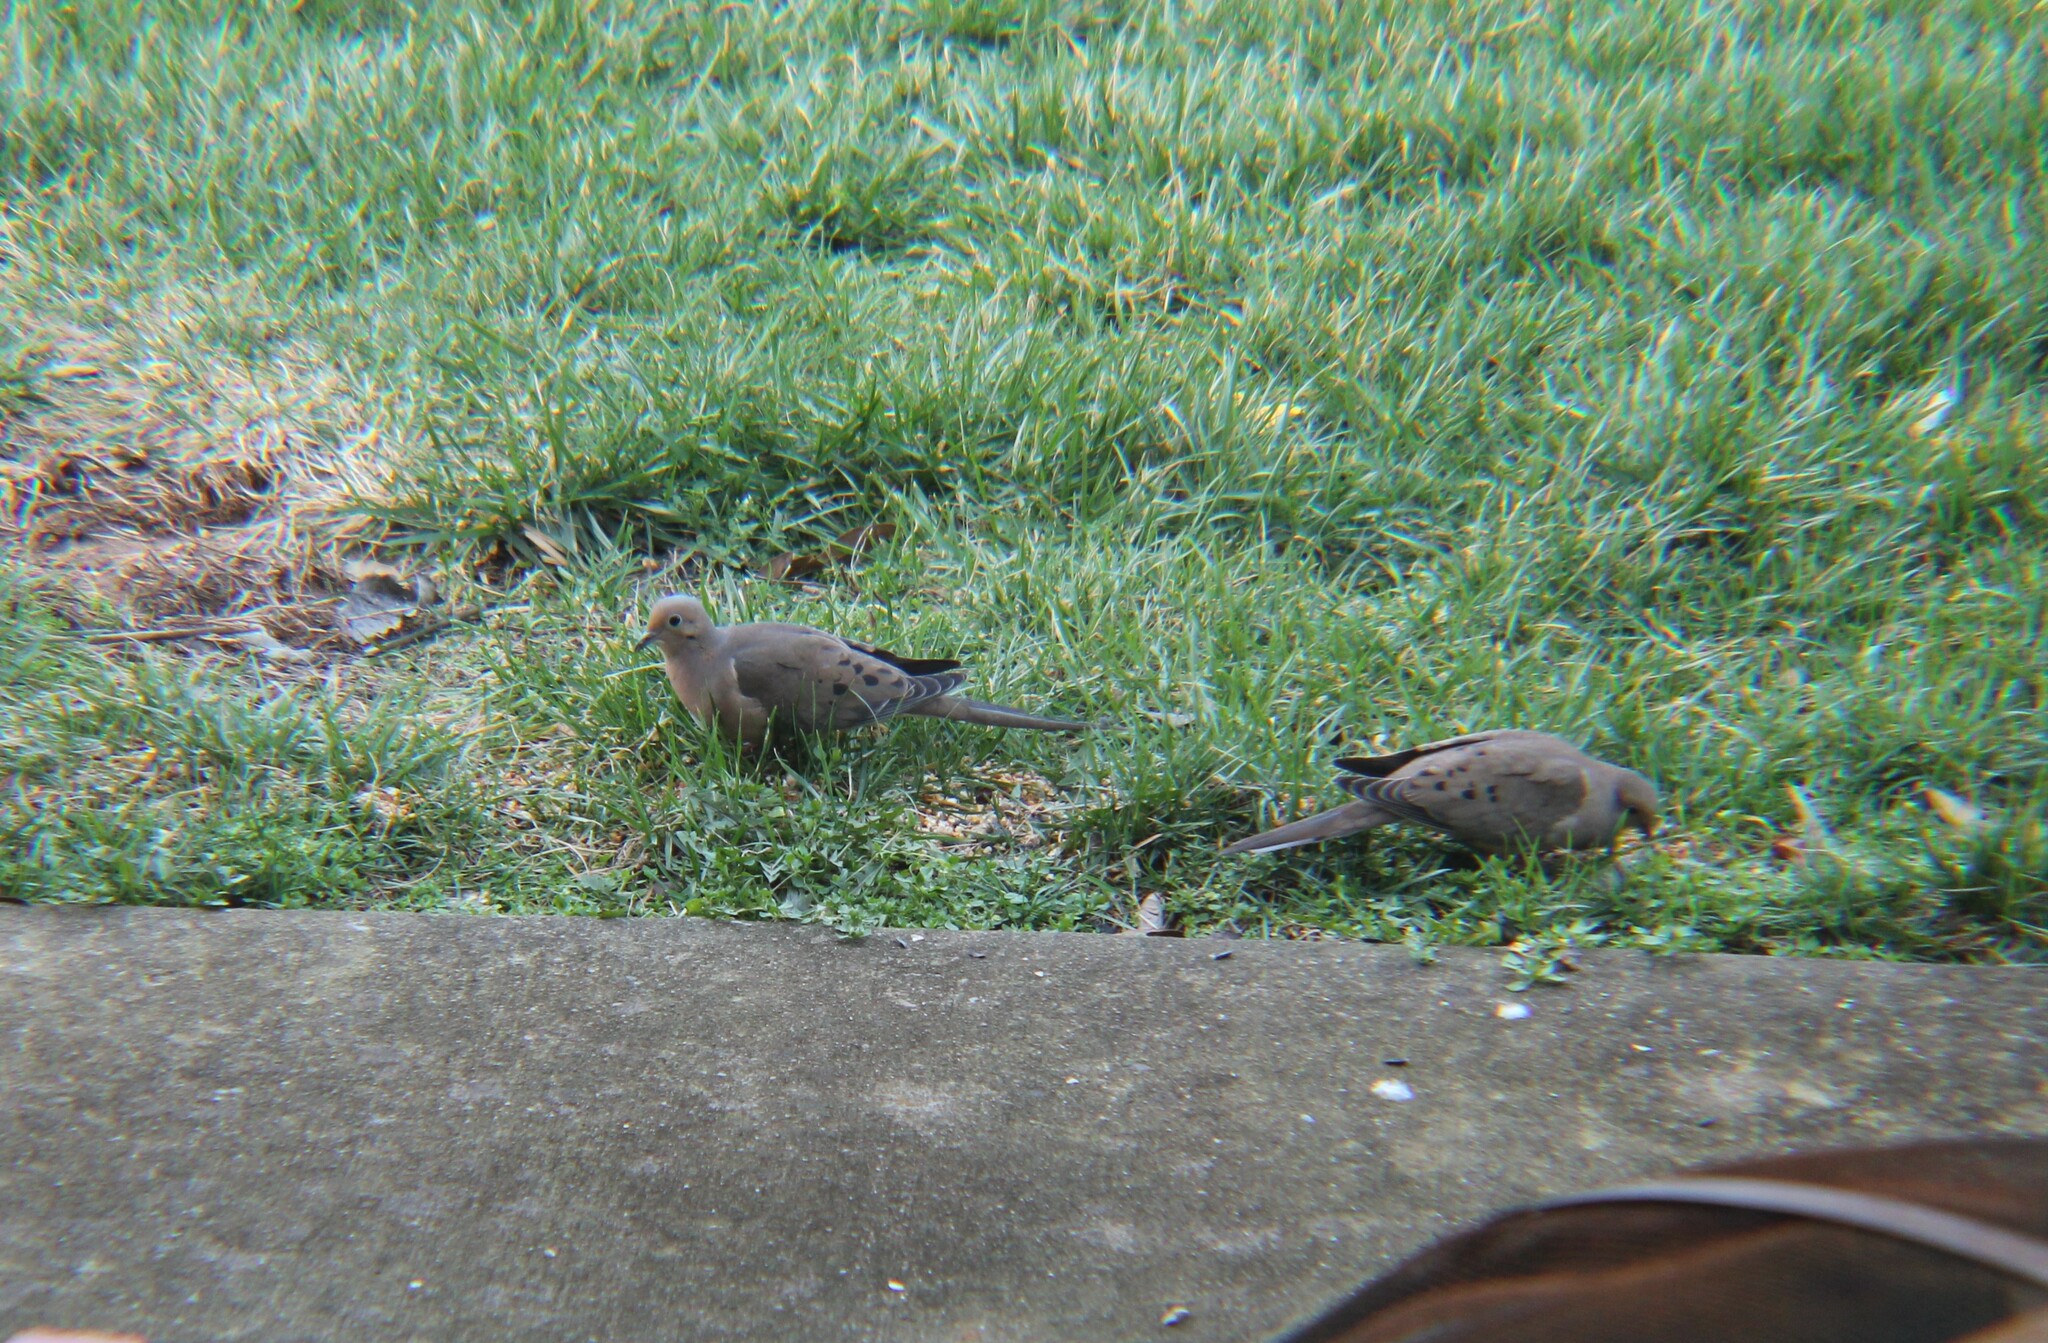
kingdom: Animalia
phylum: Chordata
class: Aves
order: Columbiformes
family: Columbidae
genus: Zenaida
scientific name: Zenaida macroura
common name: Mourning dove
